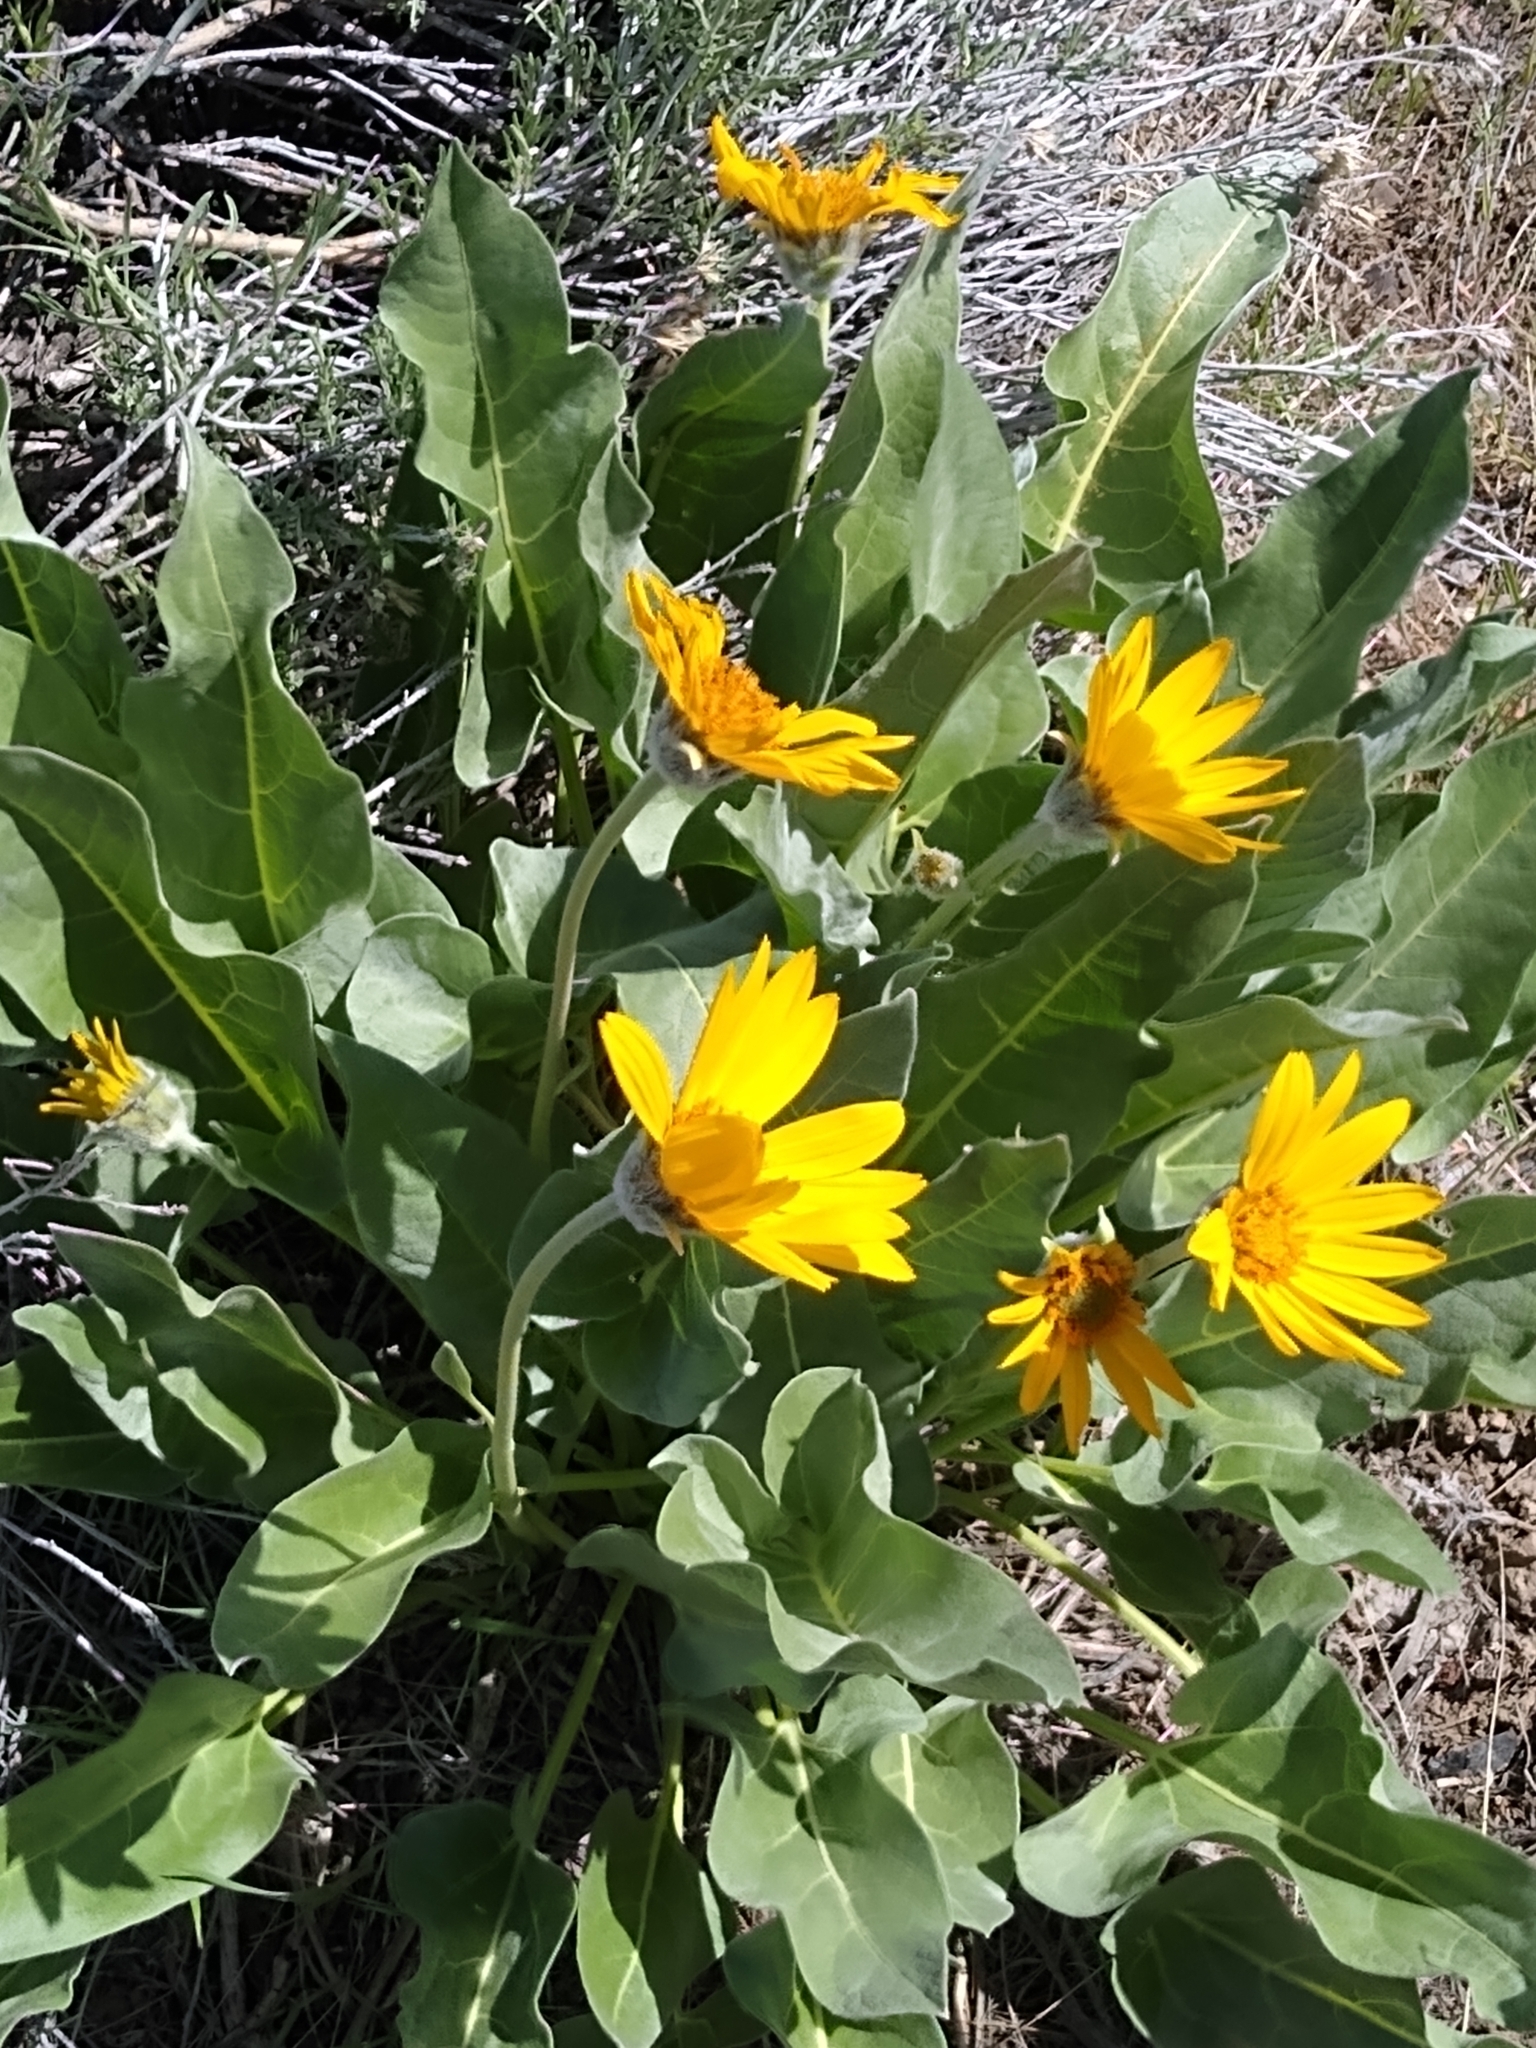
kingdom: Plantae
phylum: Tracheophyta
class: Magnoliopsida
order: Asterales
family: Asteraceae
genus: Wyethia
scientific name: Wyethia sagittata
